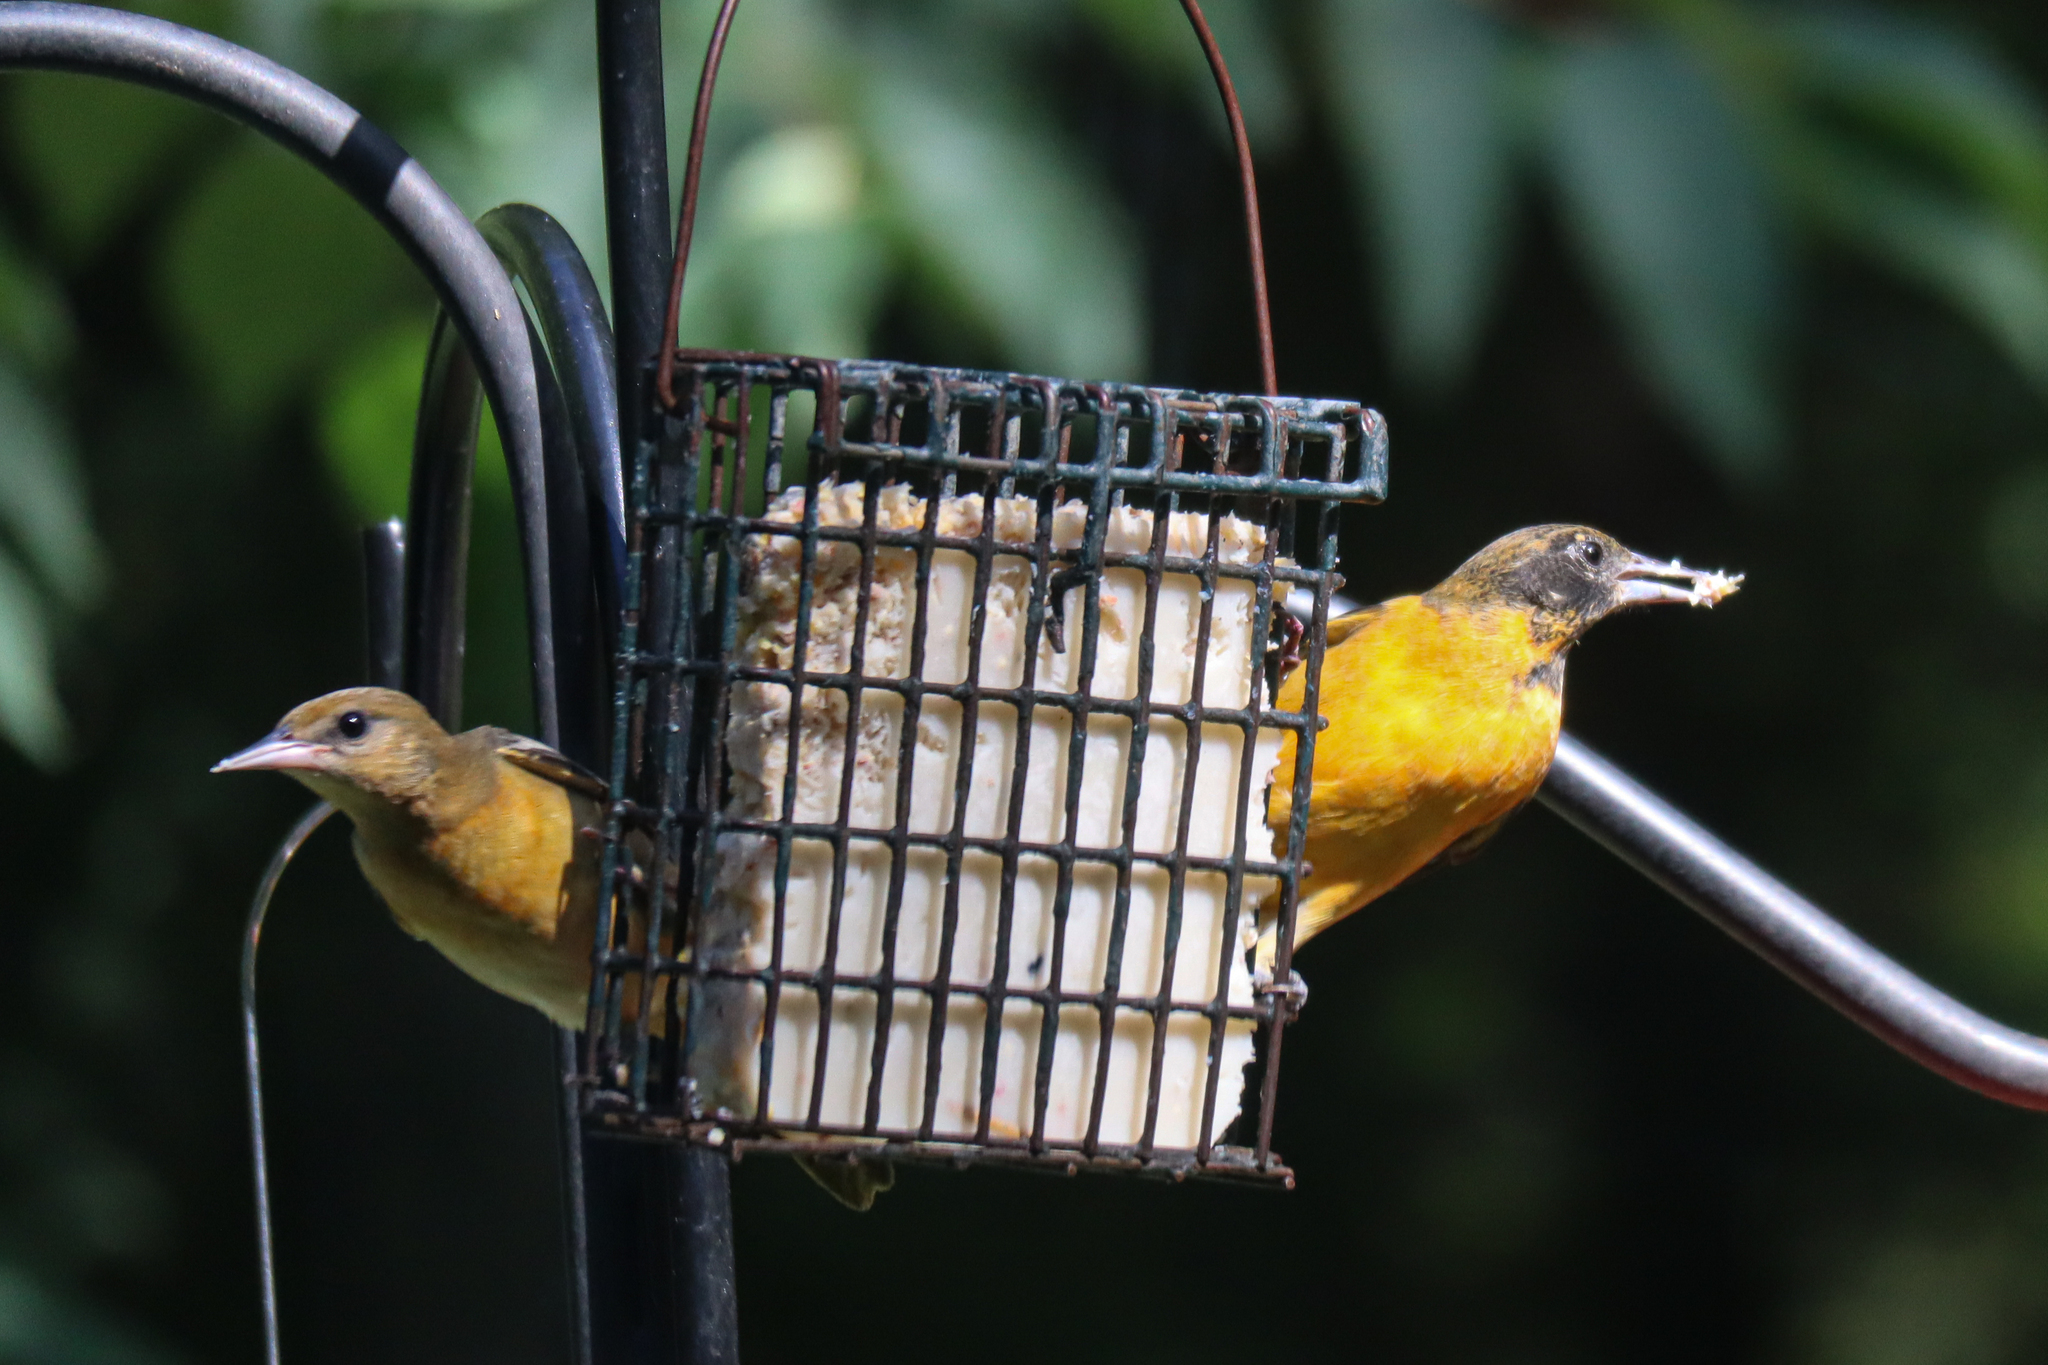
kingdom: Animalia
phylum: Chordata
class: Aves
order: Passeriformes
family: Icteridae
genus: Icterus
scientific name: Icterus galbula
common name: Baltimore oriole
